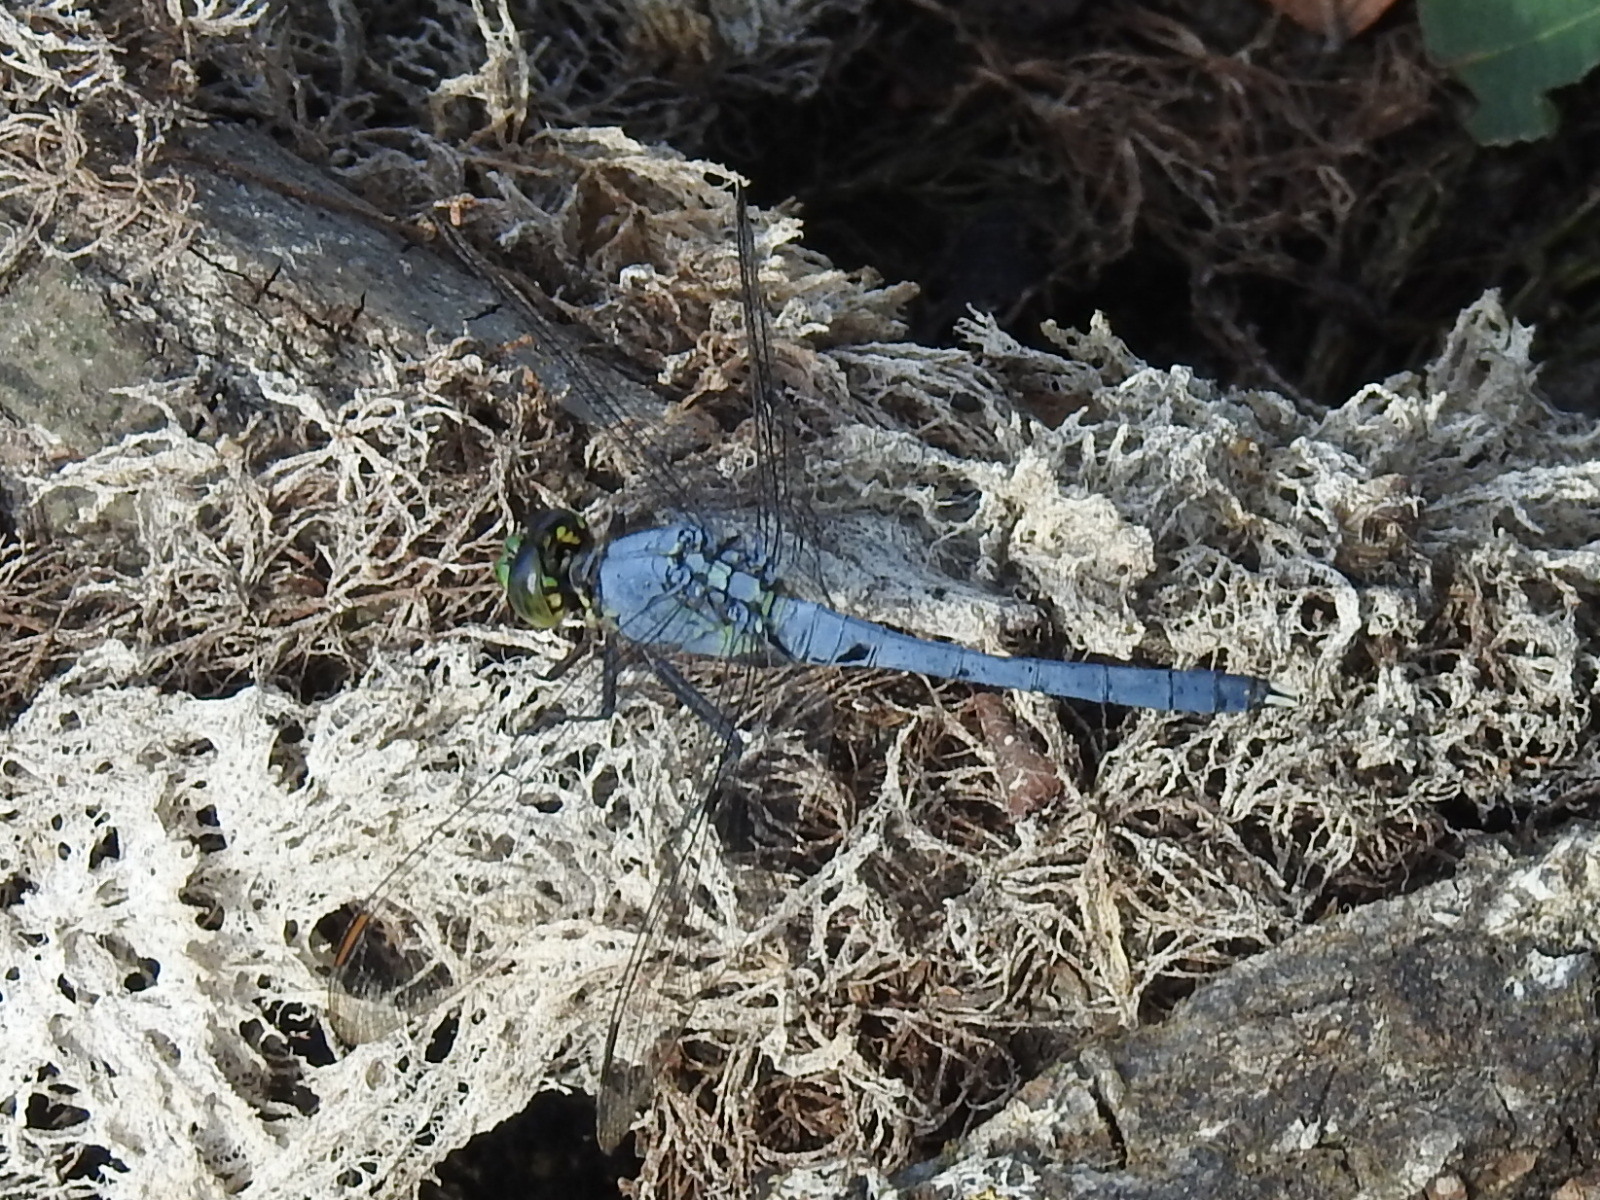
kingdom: Animalia
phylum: Arthropoda
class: Insecta
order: Odonata
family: Libellulidae
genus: Erythemis
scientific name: Erythemis simplicicollis
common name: Eastern pondhawk
